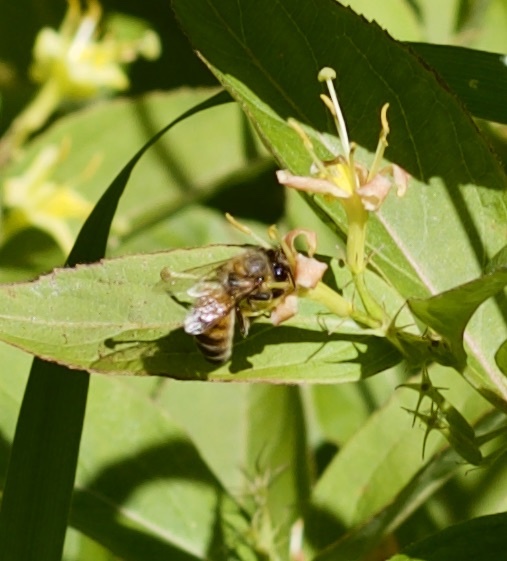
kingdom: Animalia
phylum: Arthropoda
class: Insecta
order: Hymenoptera
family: Apidae
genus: Apis
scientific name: Apis mellifera
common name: Honey bee
